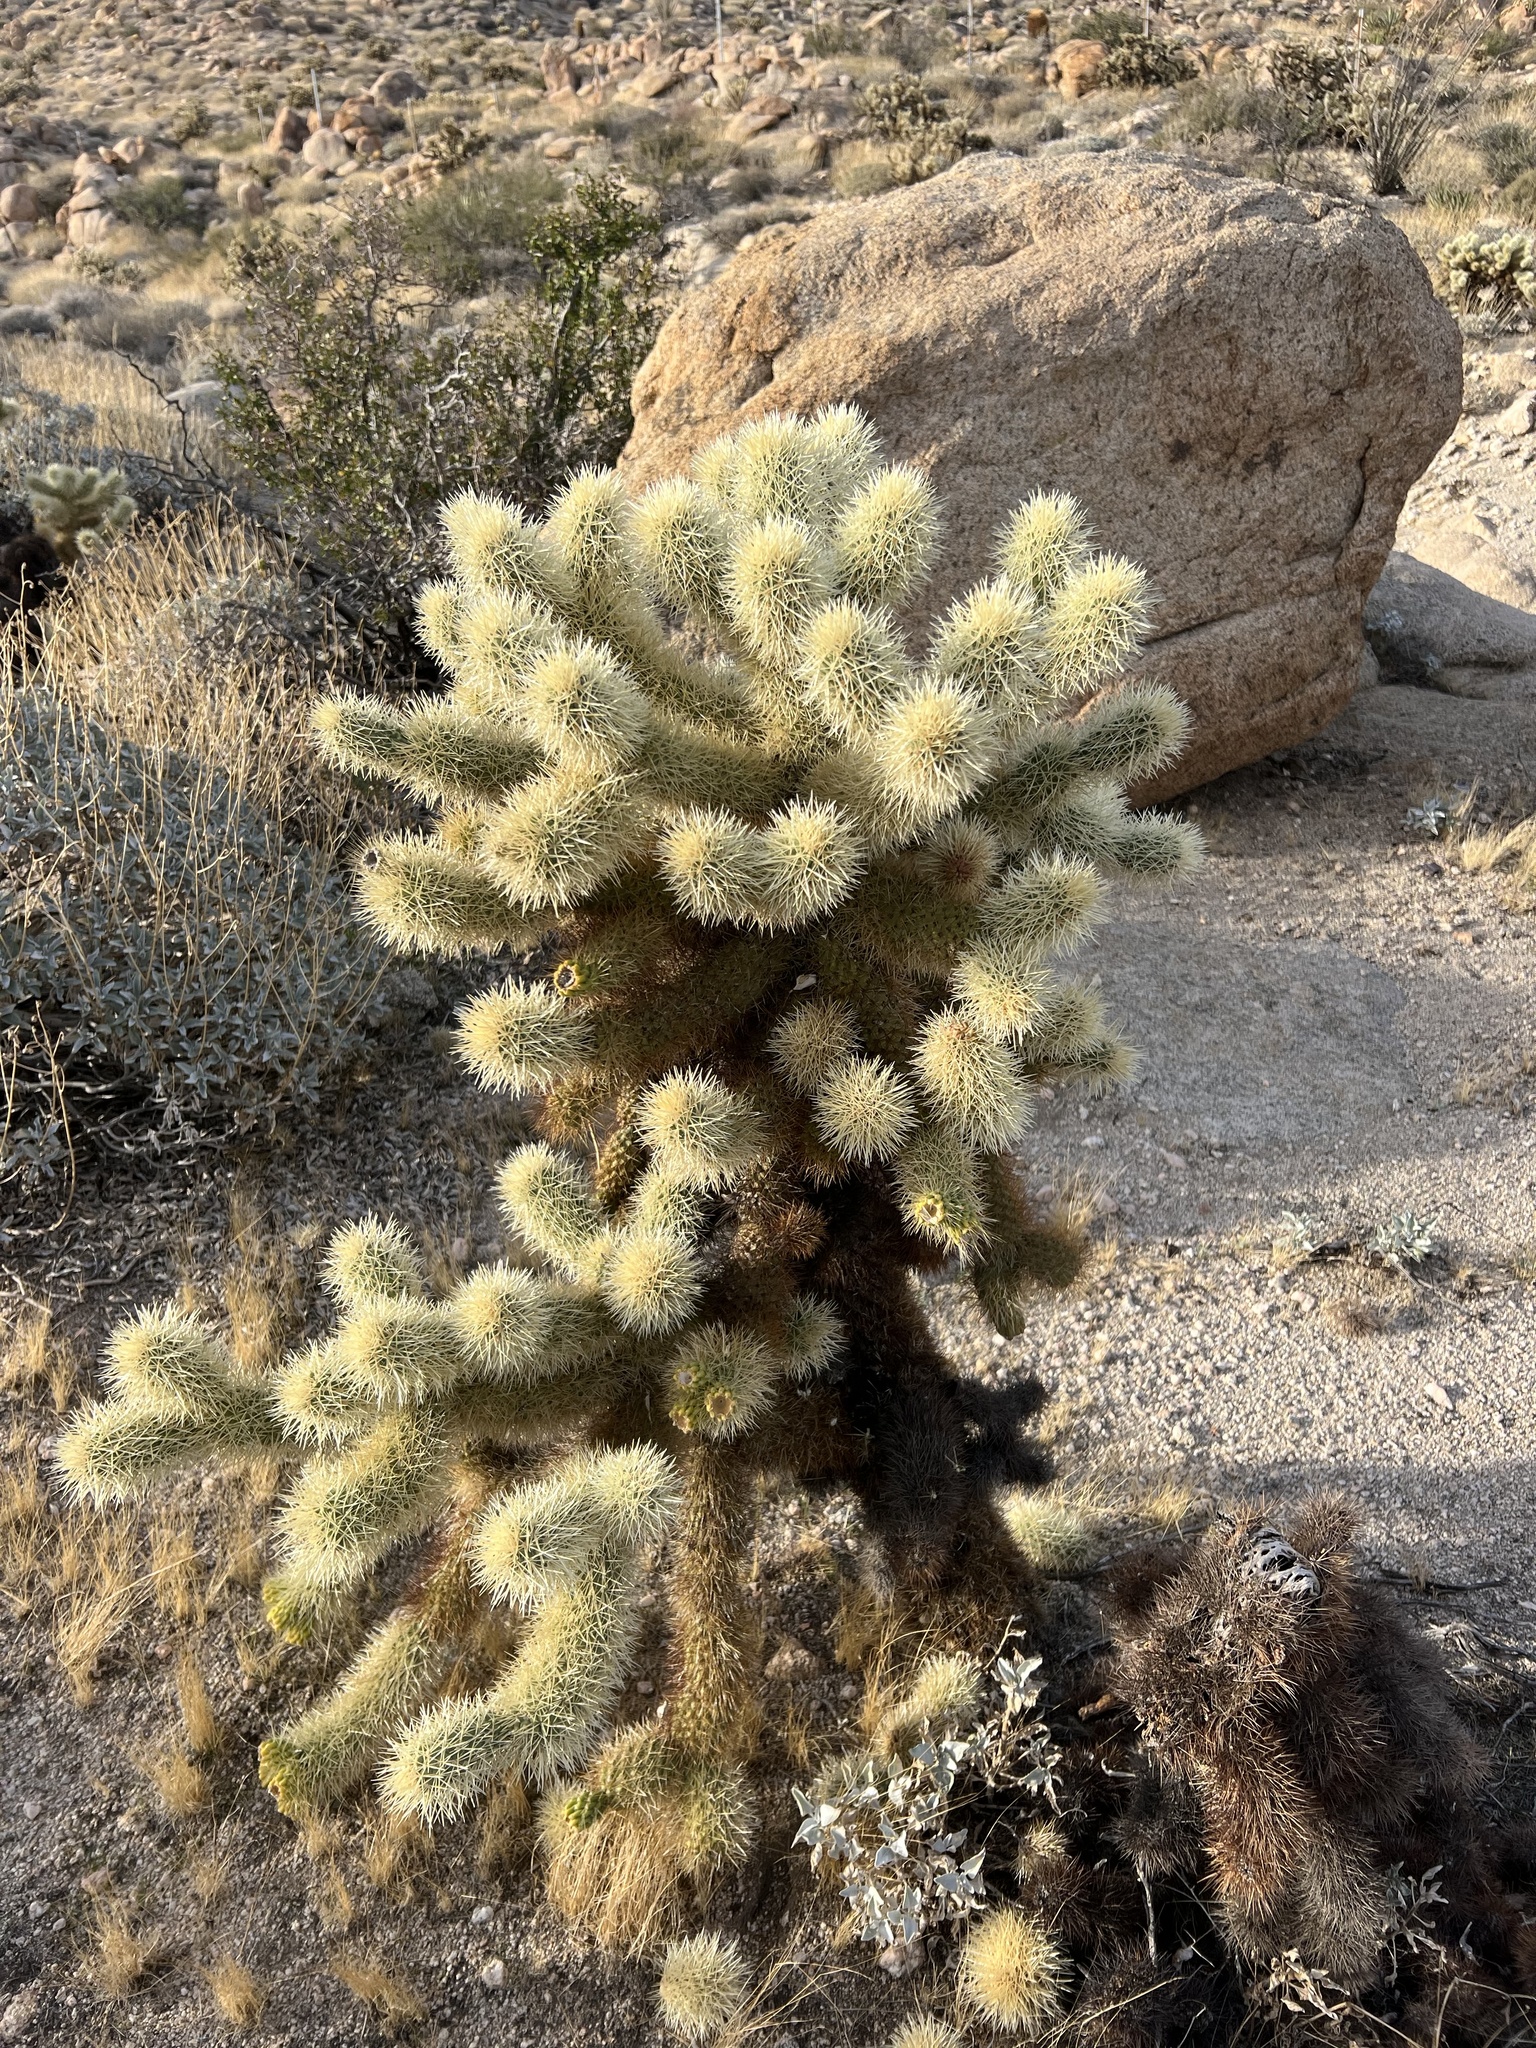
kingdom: Plantae
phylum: Tracheophyta
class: Magnoliopsida
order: Caryophyllales
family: Cactaceae
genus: Cylindropuntia
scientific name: Cylindropuntia fosbergii
